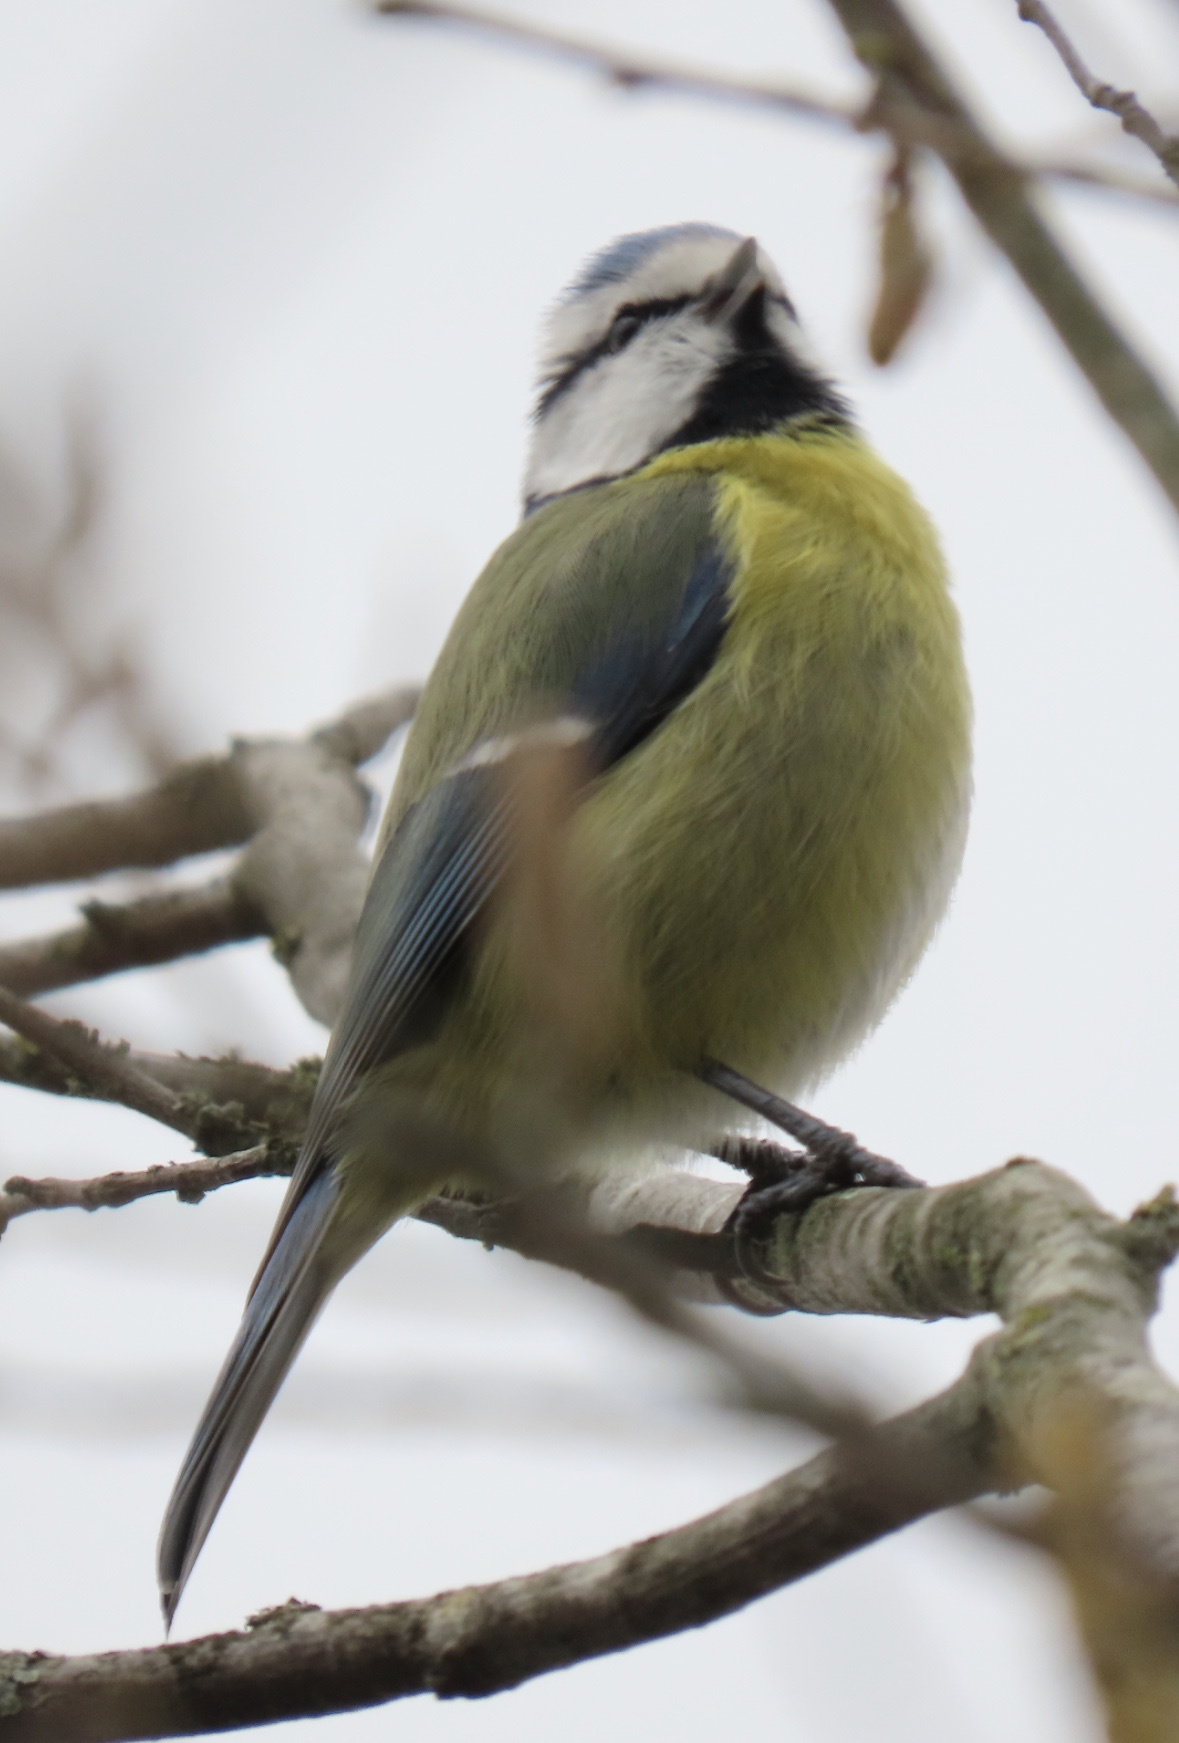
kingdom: Animalia
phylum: Chordata
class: Aves
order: Passeriformes
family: Paridae
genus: Cyanistes
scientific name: Cyanistes caeruleus
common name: Eurasian blue tit
